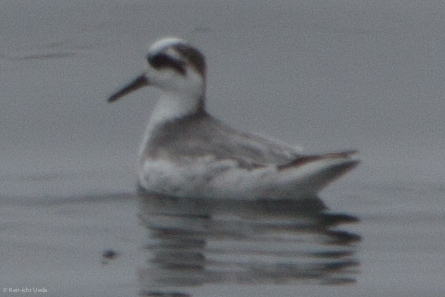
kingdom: Animalia
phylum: Chordata
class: Aves
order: Charadriiformes
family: Scolopacidae
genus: Phalaropus
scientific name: Phalaropus fulicarius
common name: Red phalarope
